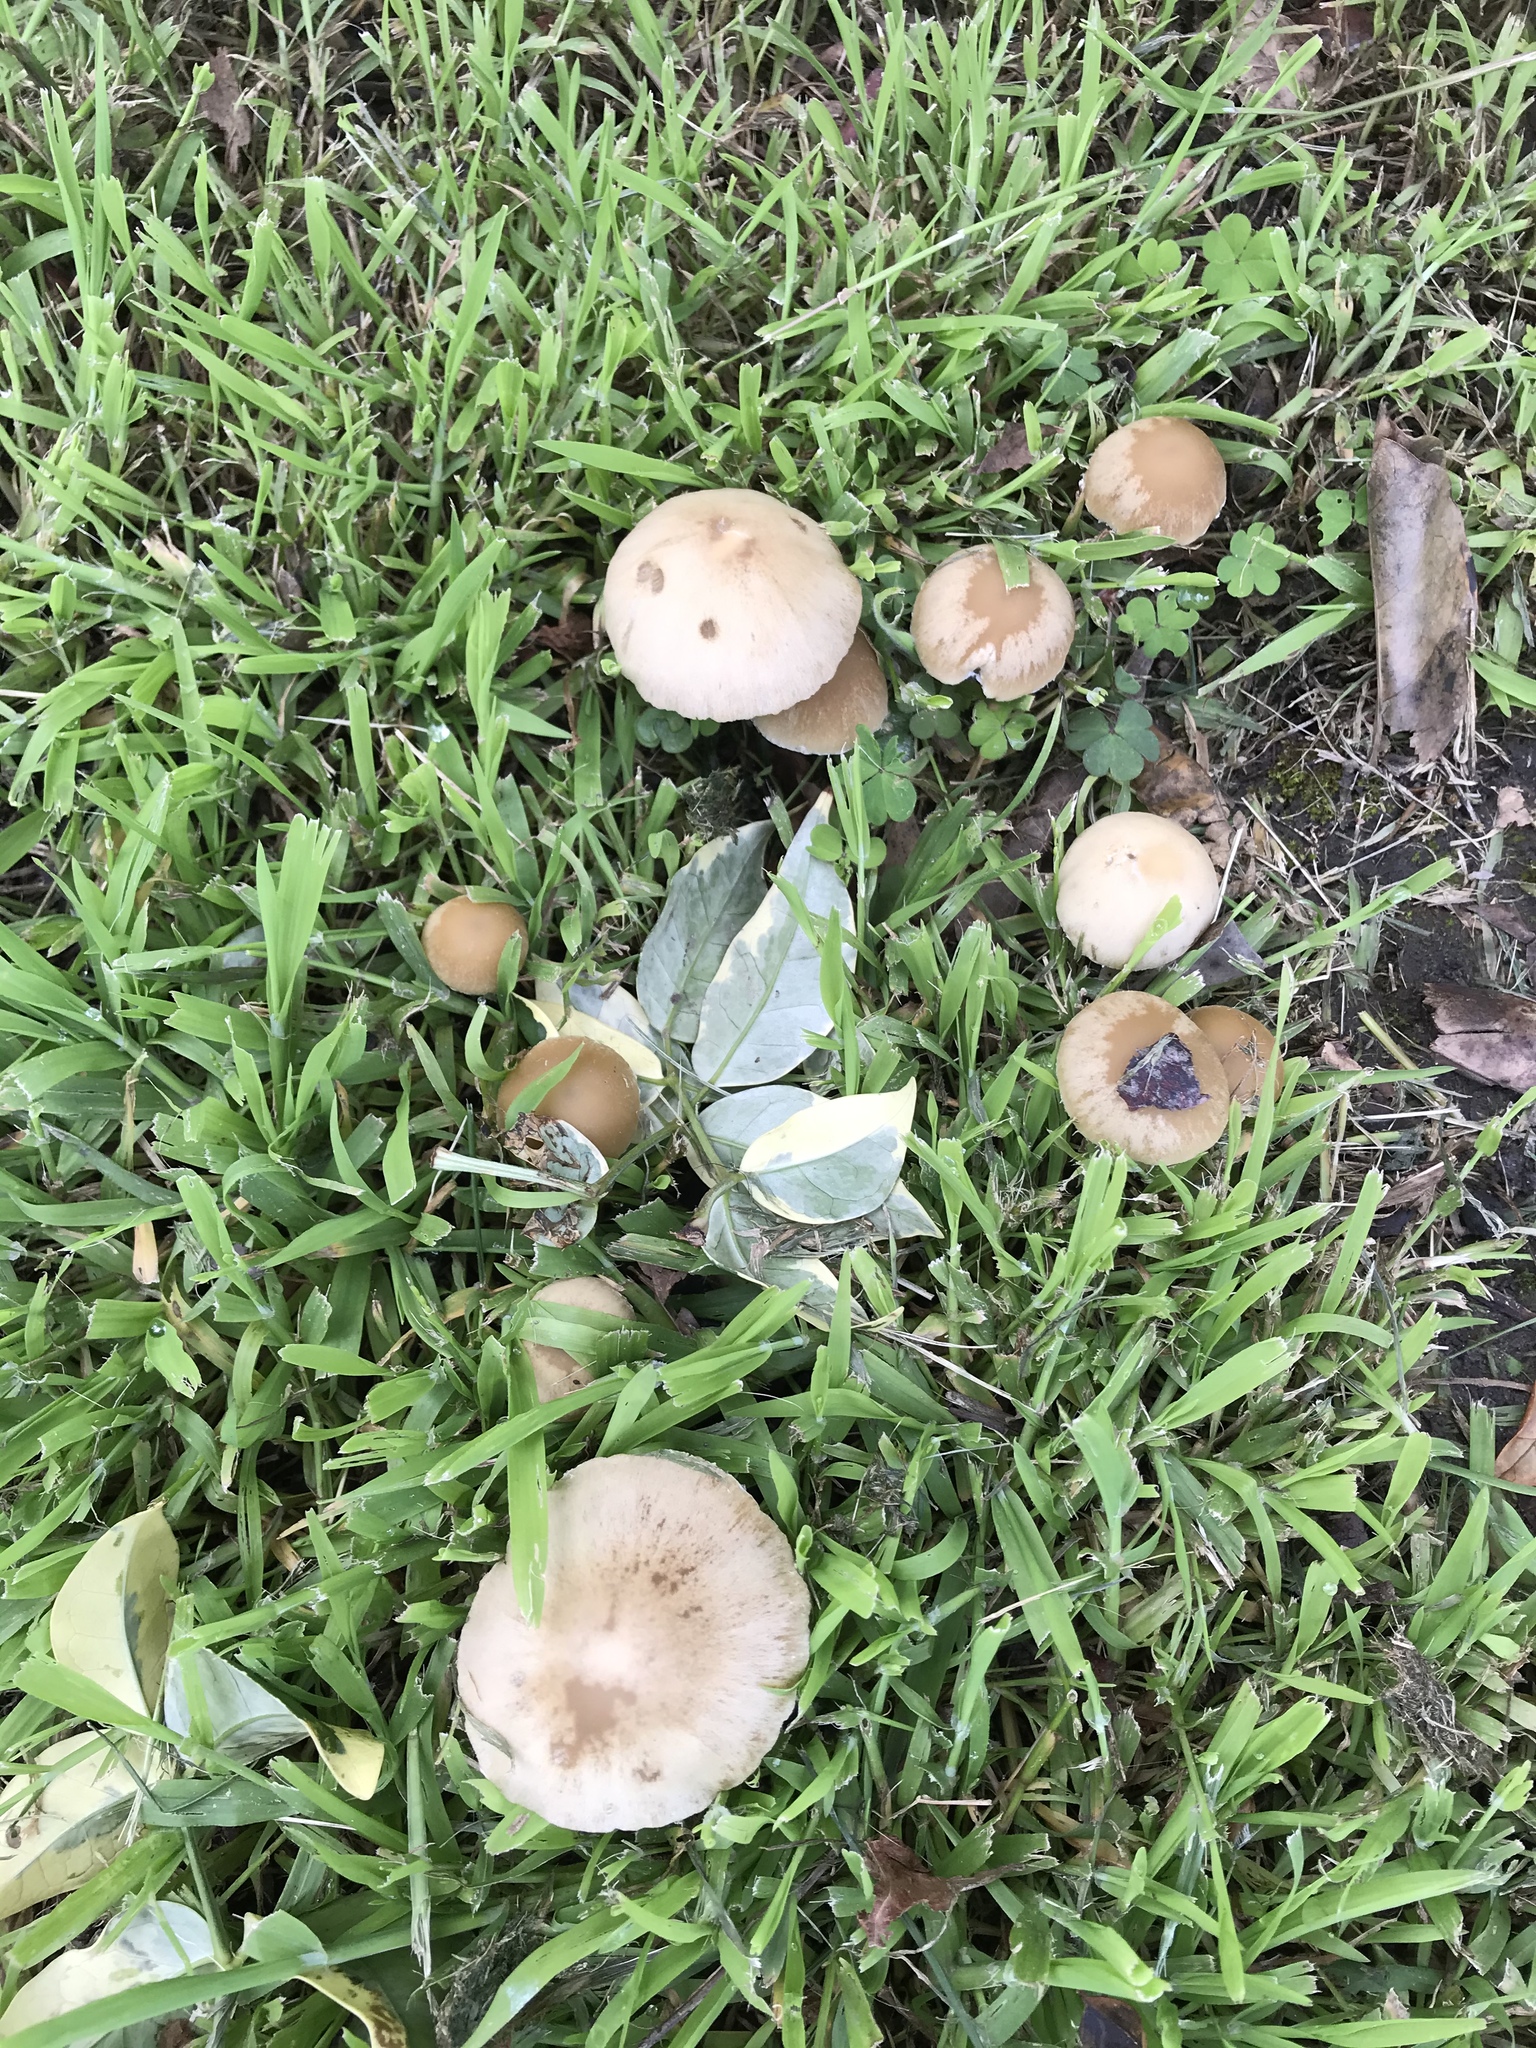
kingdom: Fungi
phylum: Basidiomycota
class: Agaricomycetes
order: Agaricales
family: Psathyrellaceae
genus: Candolleomyces
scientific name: Candolleomyces candolleanus
